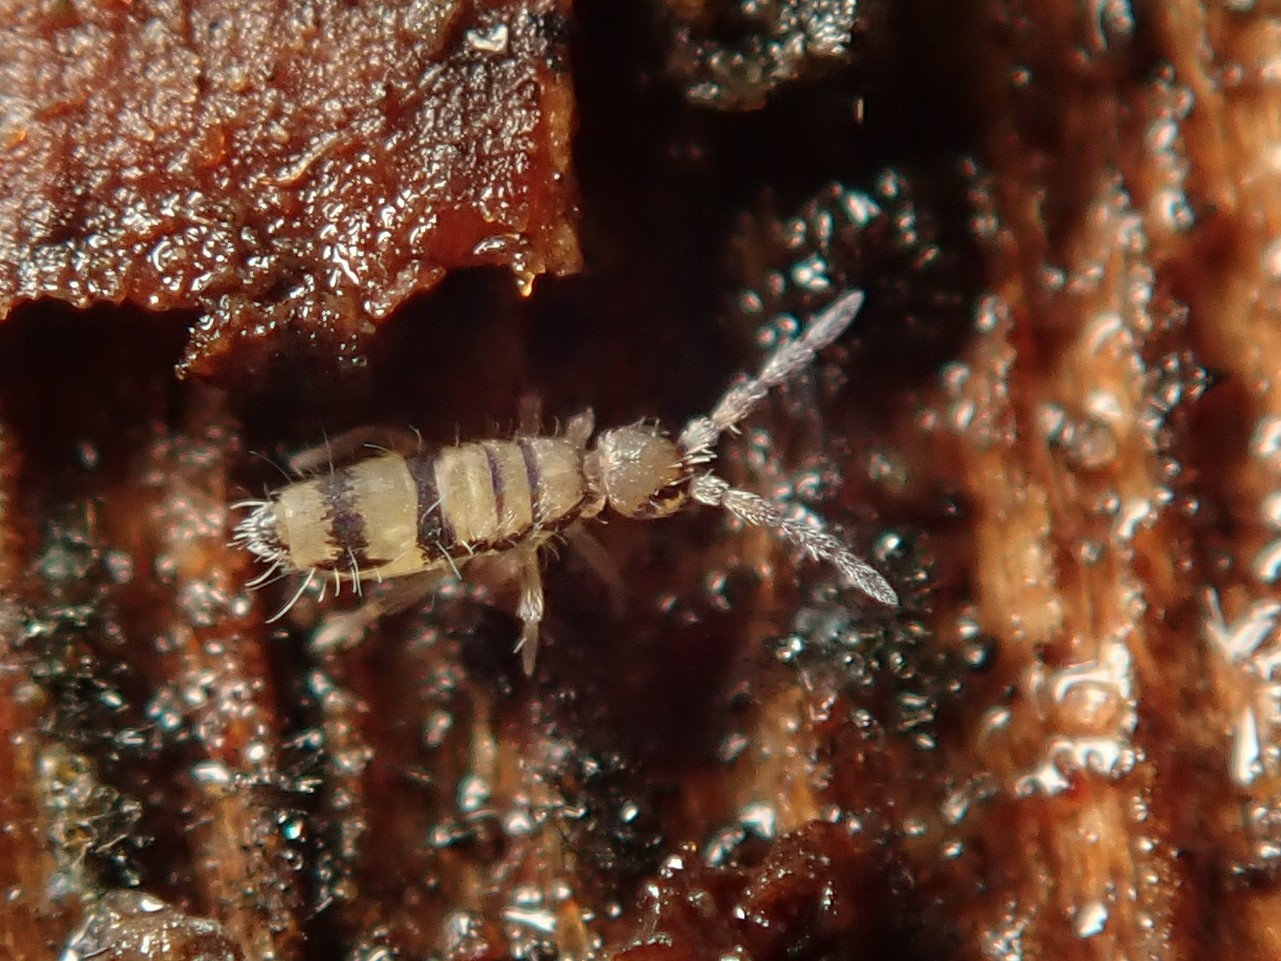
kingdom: Animalia
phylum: Arthropoda
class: Collembola
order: Entomobryomorpha
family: Entomobryidae
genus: Entomobrya
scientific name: Entomobrya corticalis
